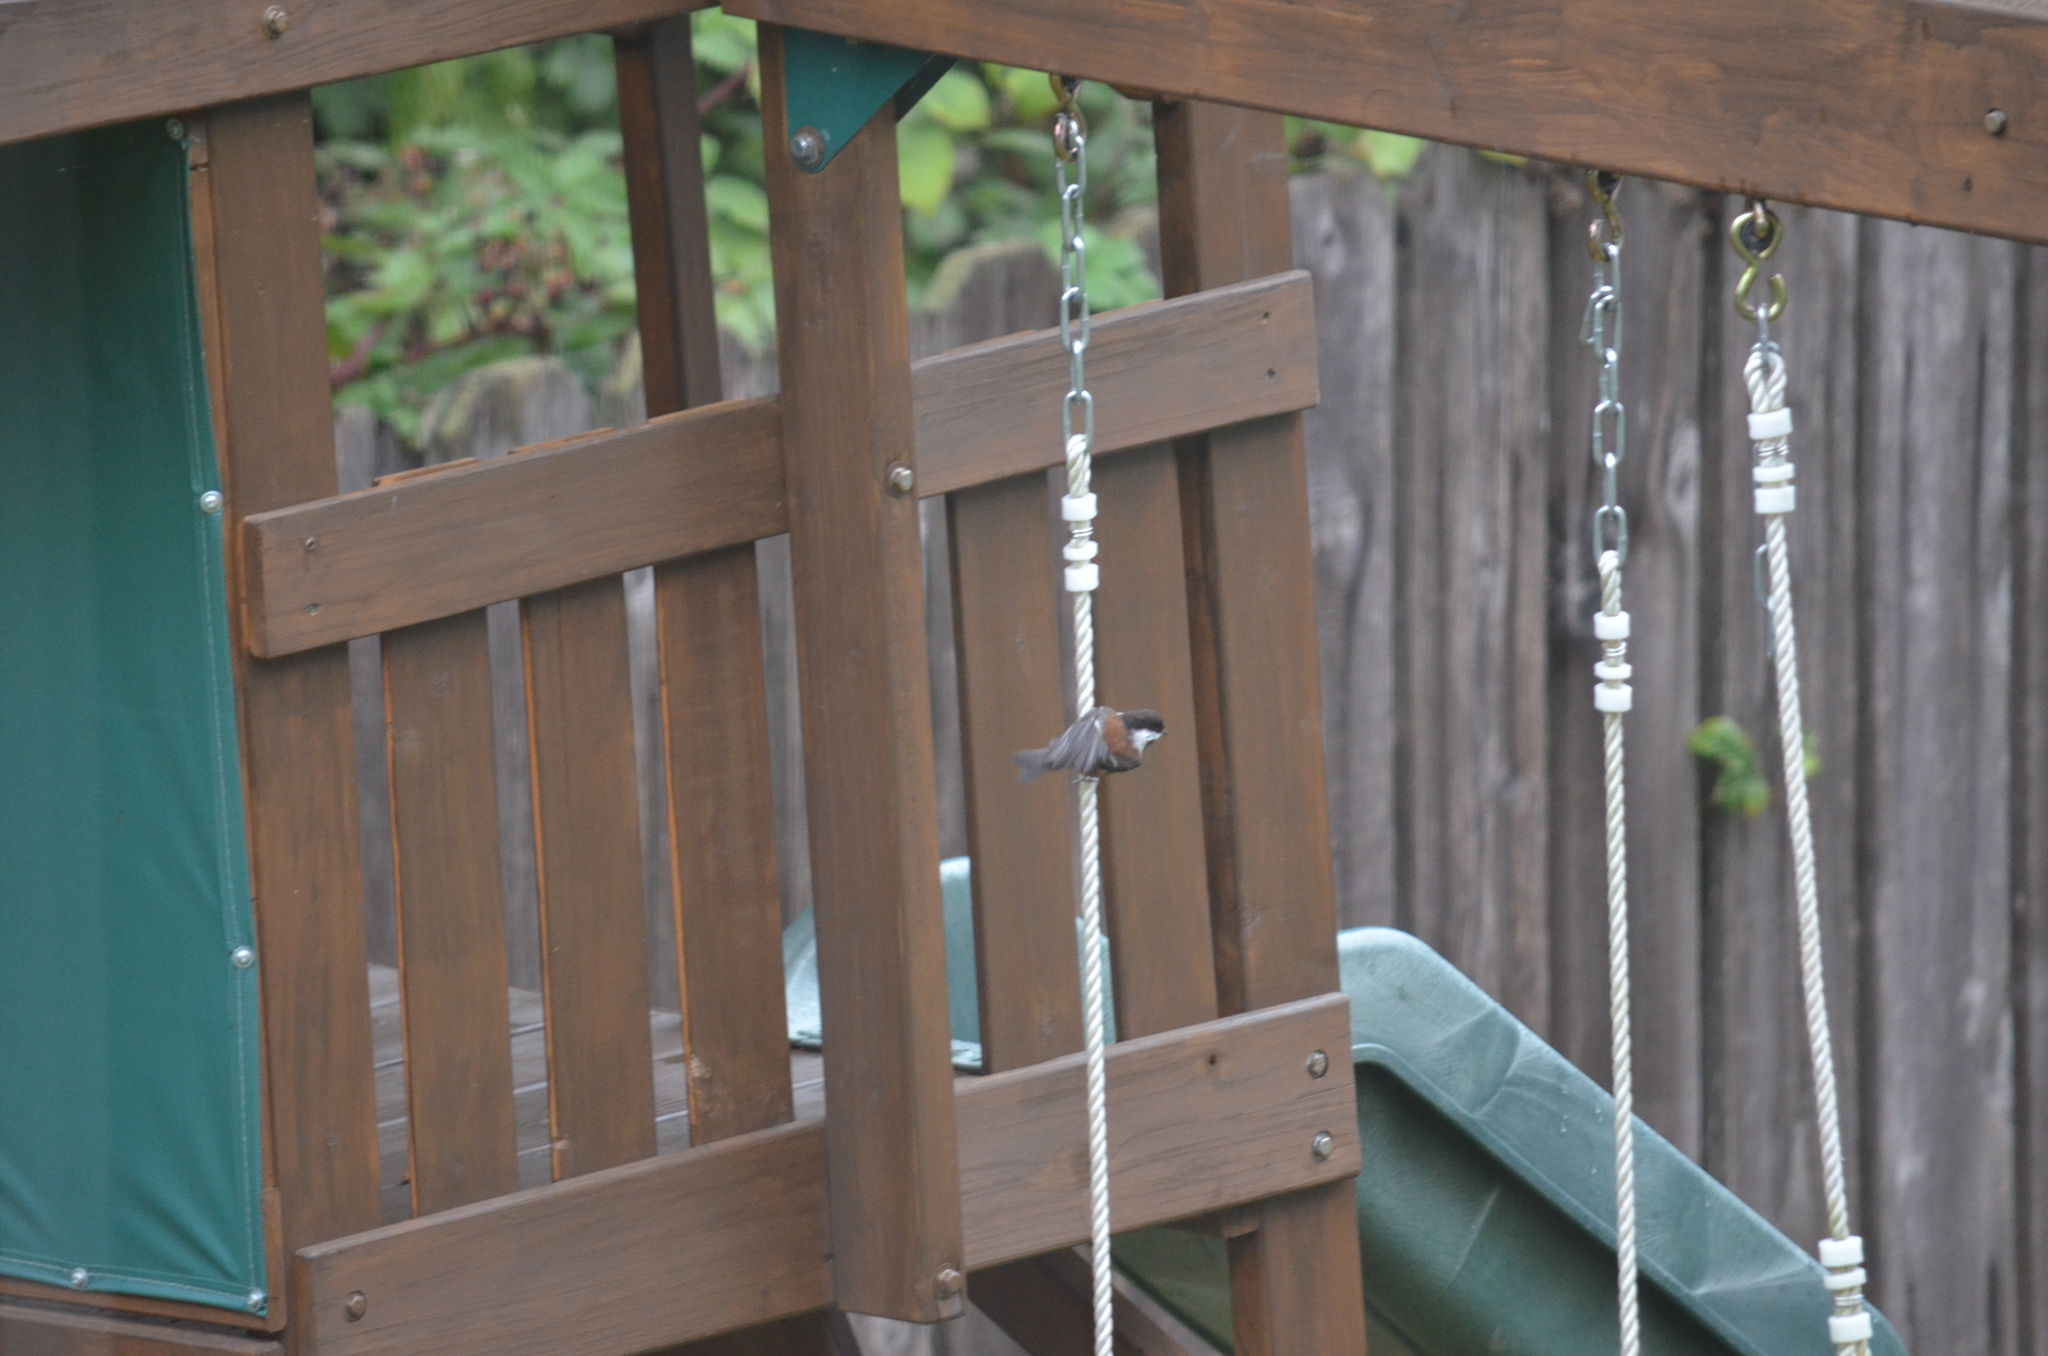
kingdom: Animalia
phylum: Chordata
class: Aves
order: Passeriformes
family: Paridae
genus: Poecile
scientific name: Poecile rufescens
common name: Chestnut-backed chickadee
